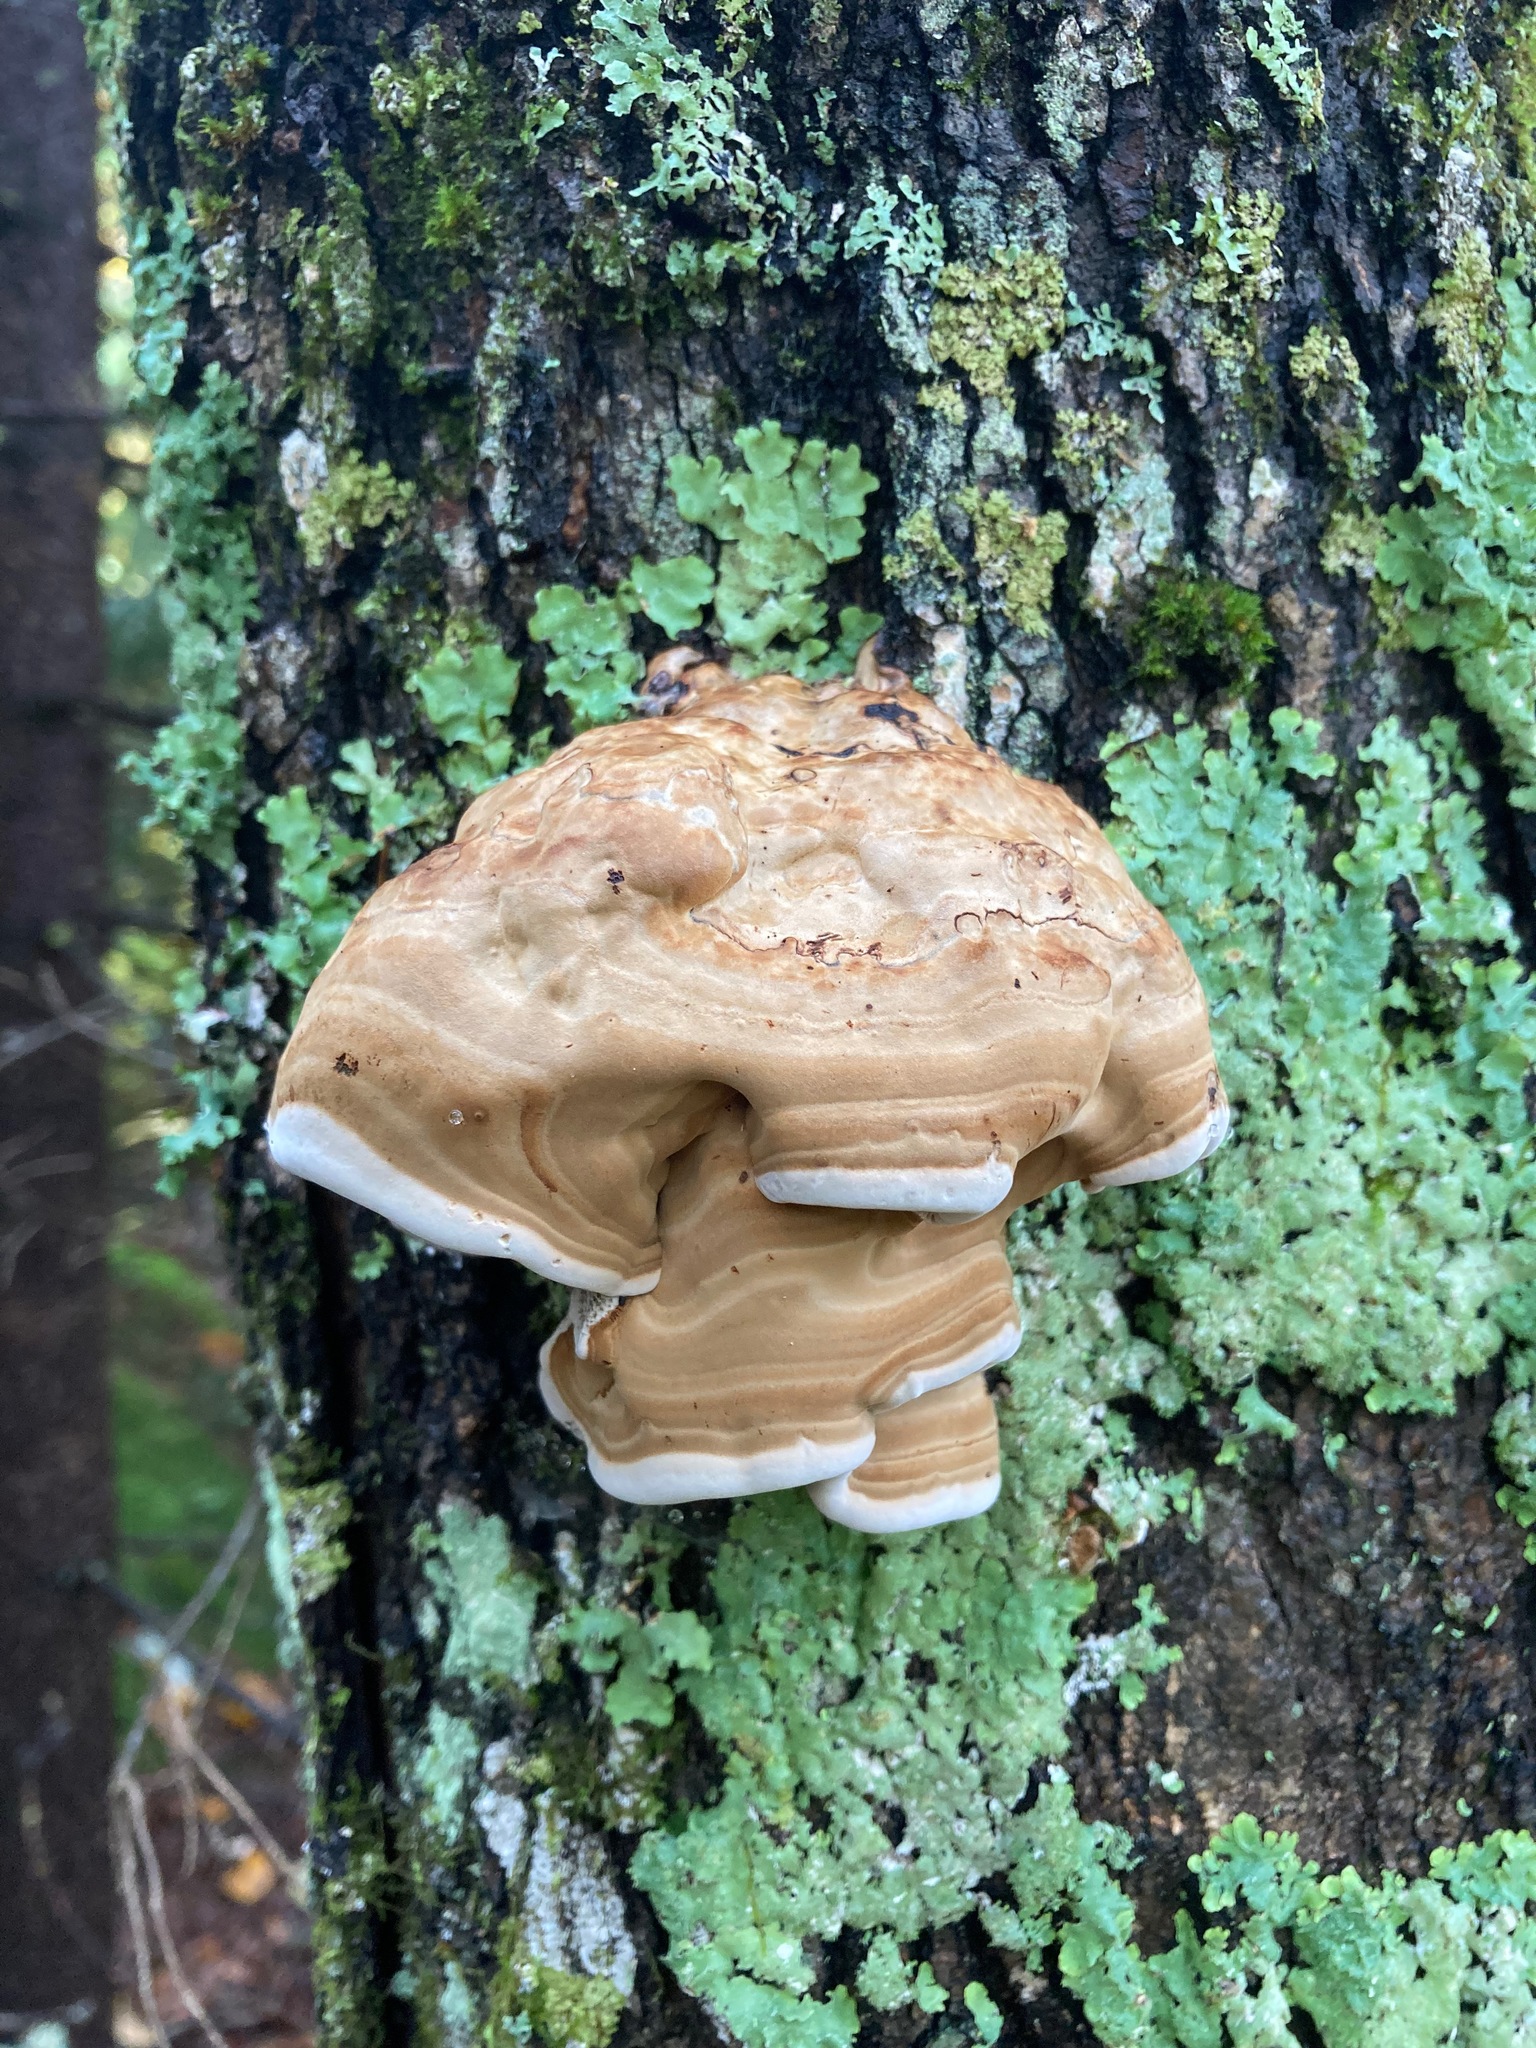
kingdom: Fungi
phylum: Basidiomycota
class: Agaricomycetes
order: Polyporales
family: Polyporaceae
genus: Fomes
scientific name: Fomes fomentarius
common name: Hoof fungus
